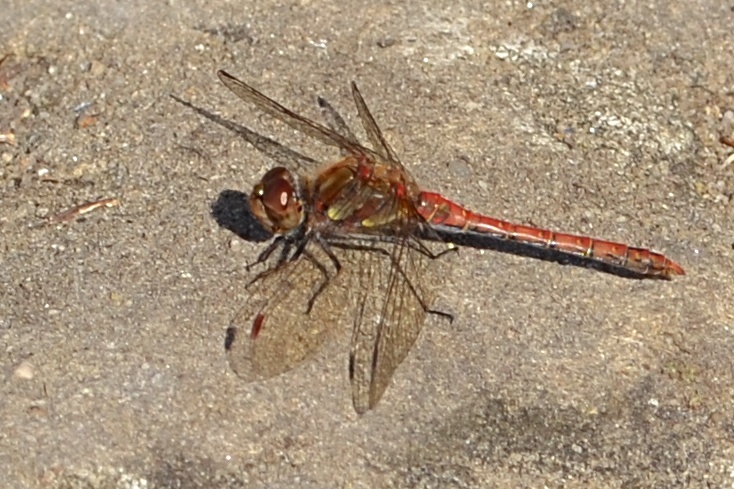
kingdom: Animalia
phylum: Arthropoda
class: Insecta
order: Odonata
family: Libellulidae
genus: Sympetrum
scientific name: Sympetrum striolatum
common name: Common darter
